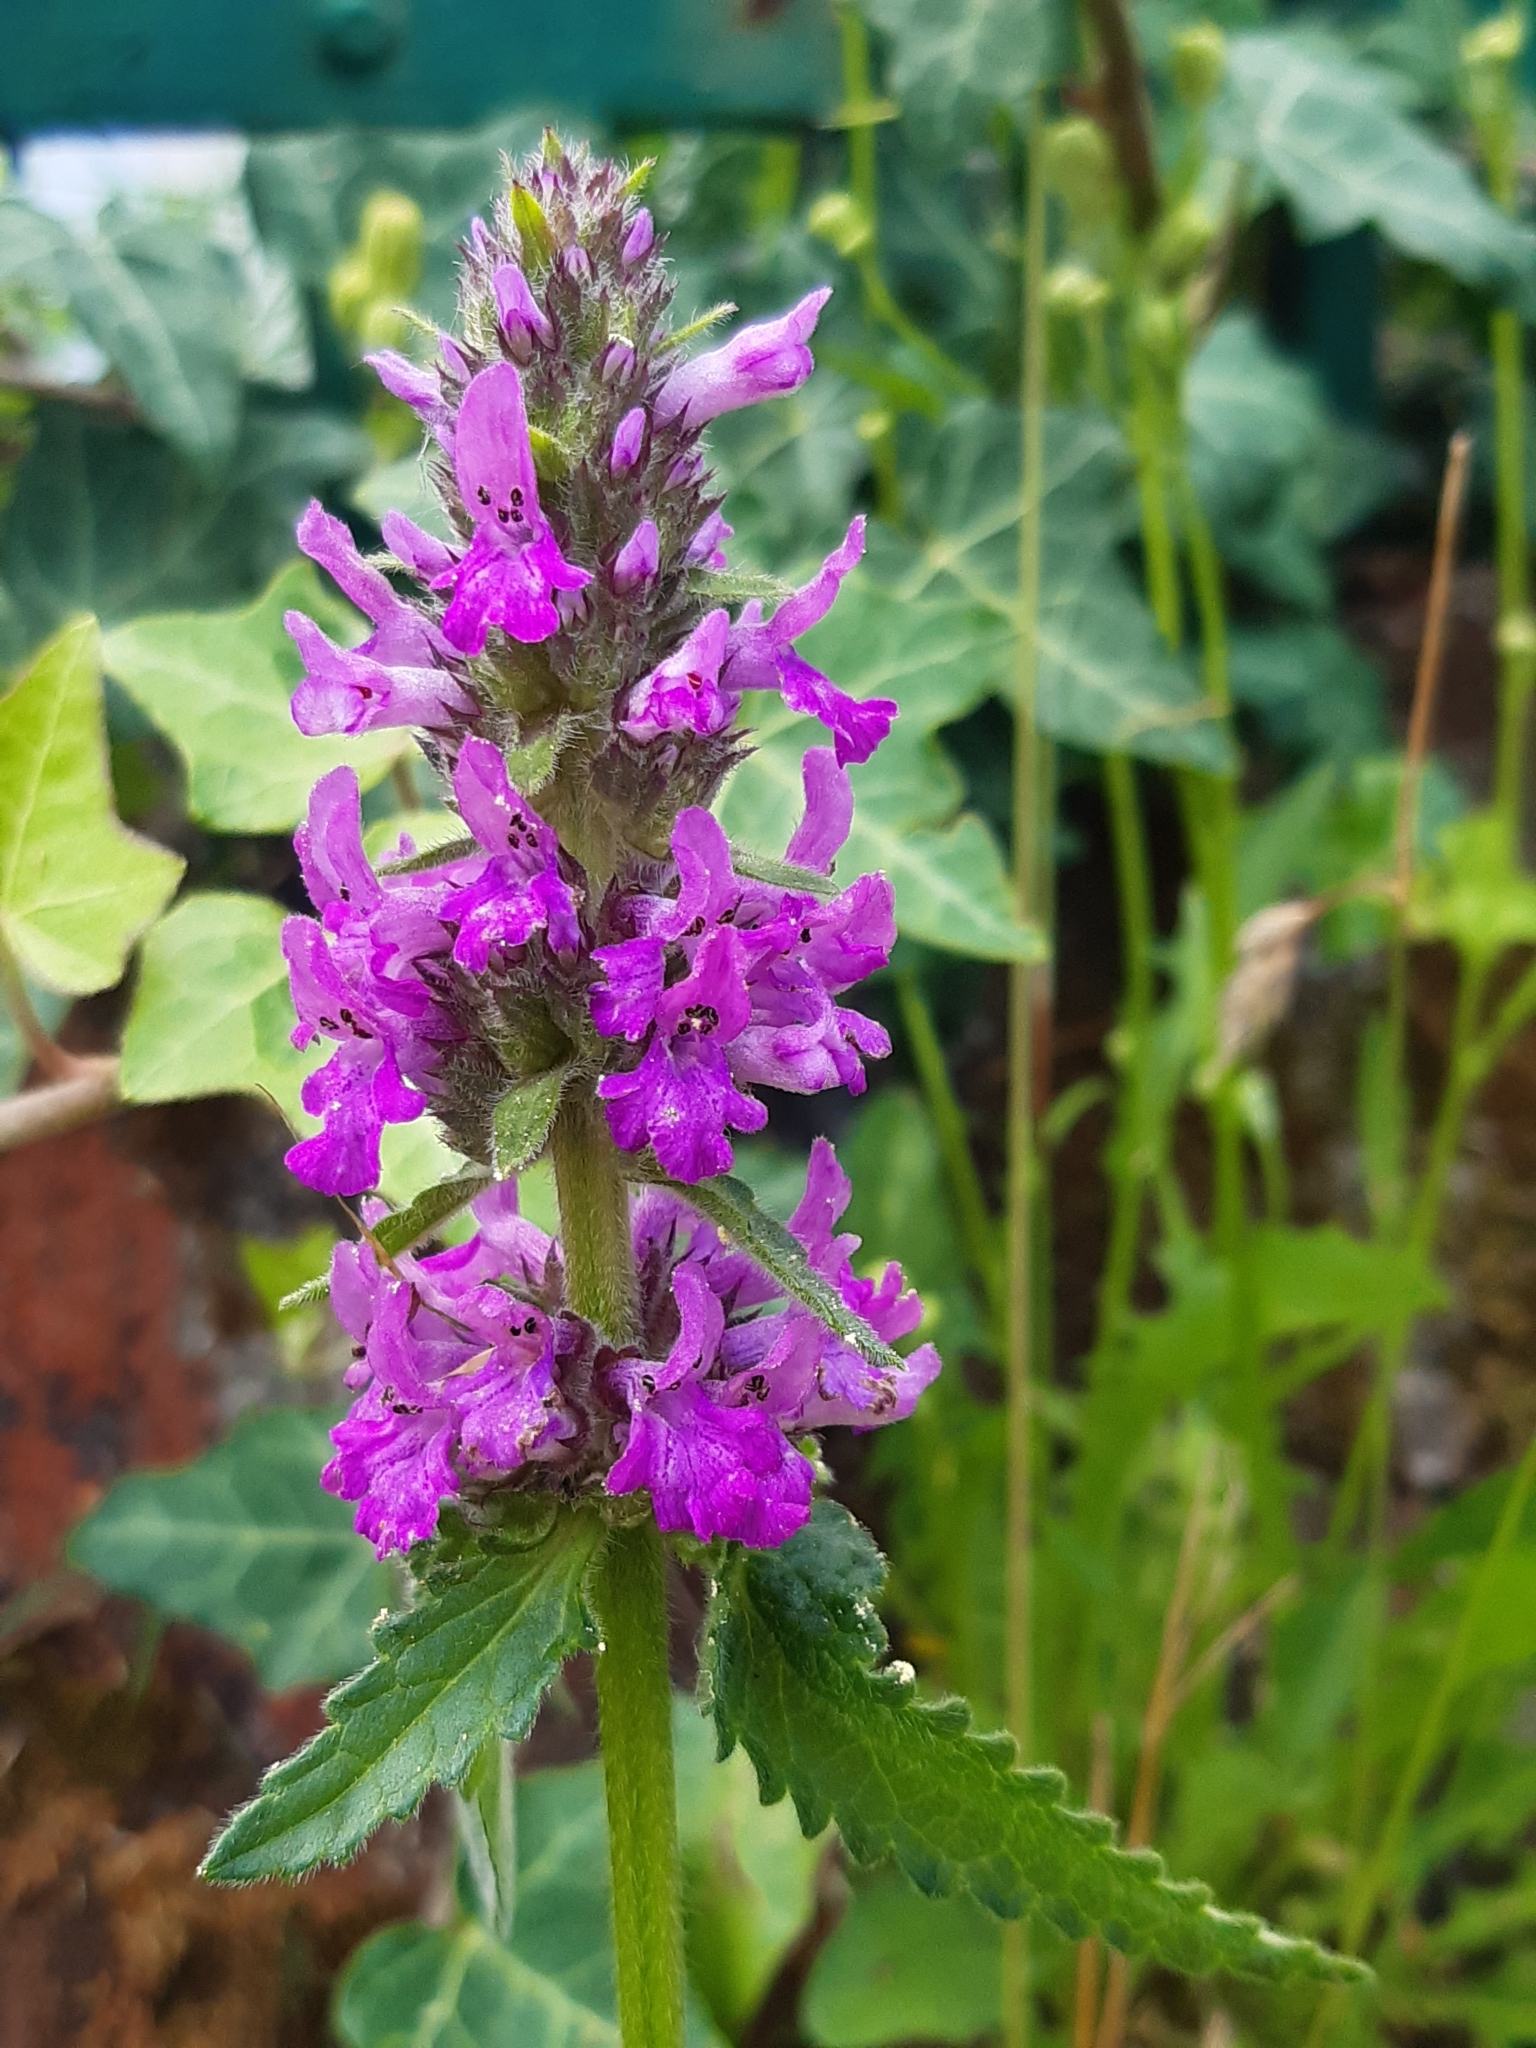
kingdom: Plantae
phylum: Tracheophyta
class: Magnoliopsida
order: Lamiales
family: Lamiaceae
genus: Betonica
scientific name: Betonica officinalis
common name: Bishop's-wort
